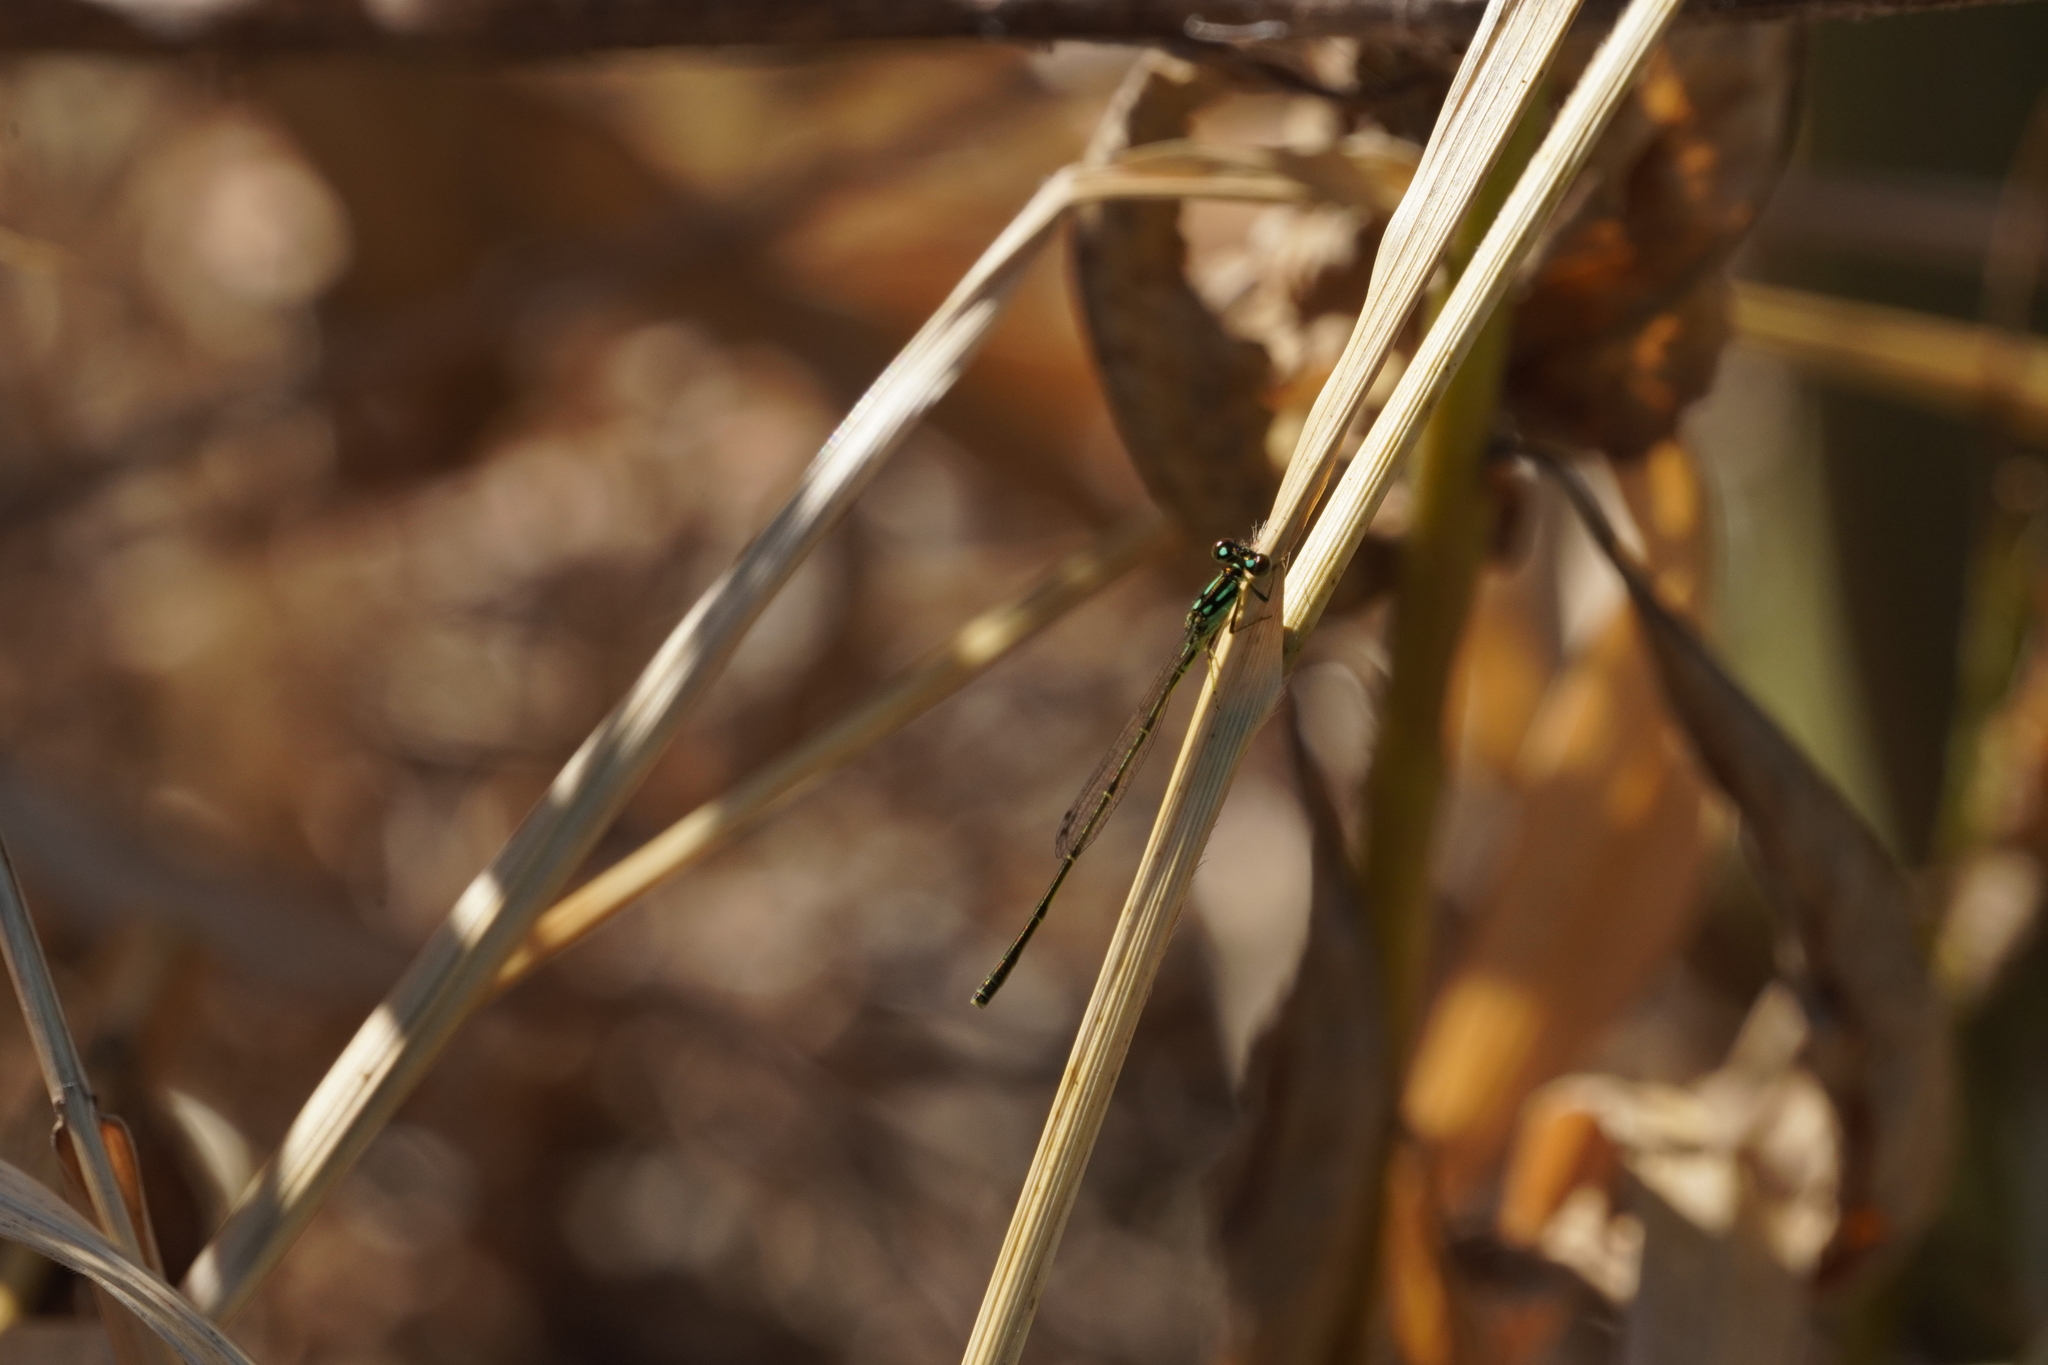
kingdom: Animalia
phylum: Arthropoda
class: Insecta
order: Odonata
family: Coenagrionidae
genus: Ischnura
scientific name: Ischnura posita
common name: Fragile forktail
